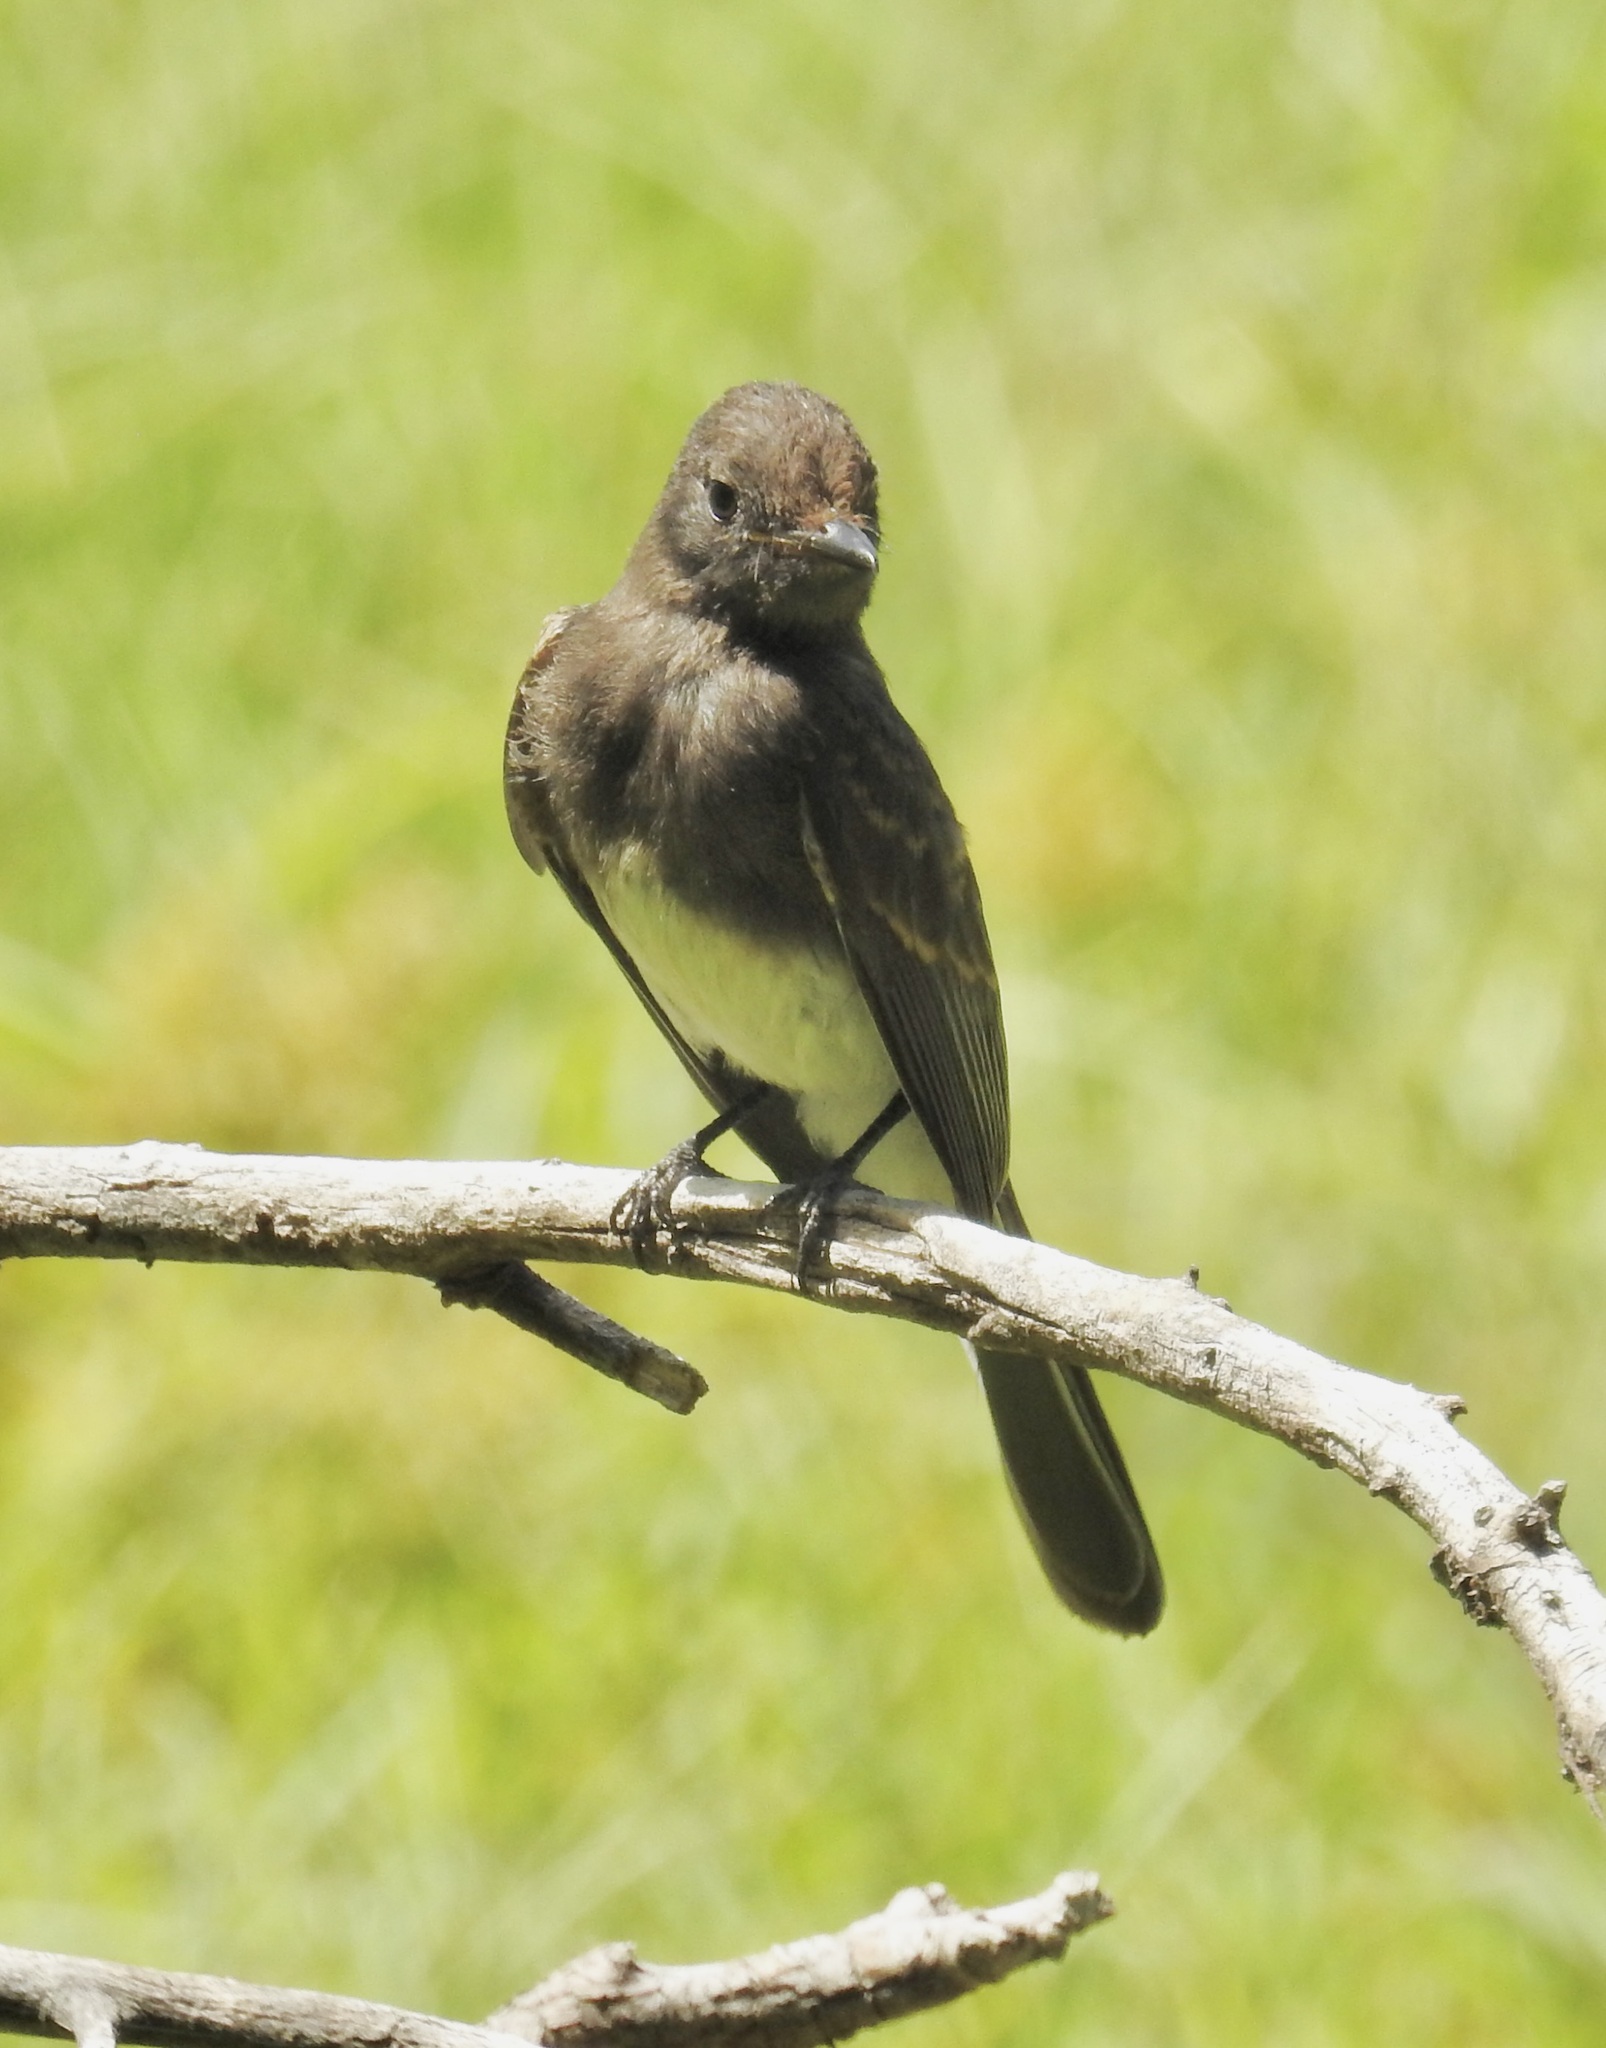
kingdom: Animalia
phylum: Chordata
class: Aves
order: Passeriformes
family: Tyrannidae
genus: Sayornis
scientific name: Sayornis nigricans
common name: Black phoebe
